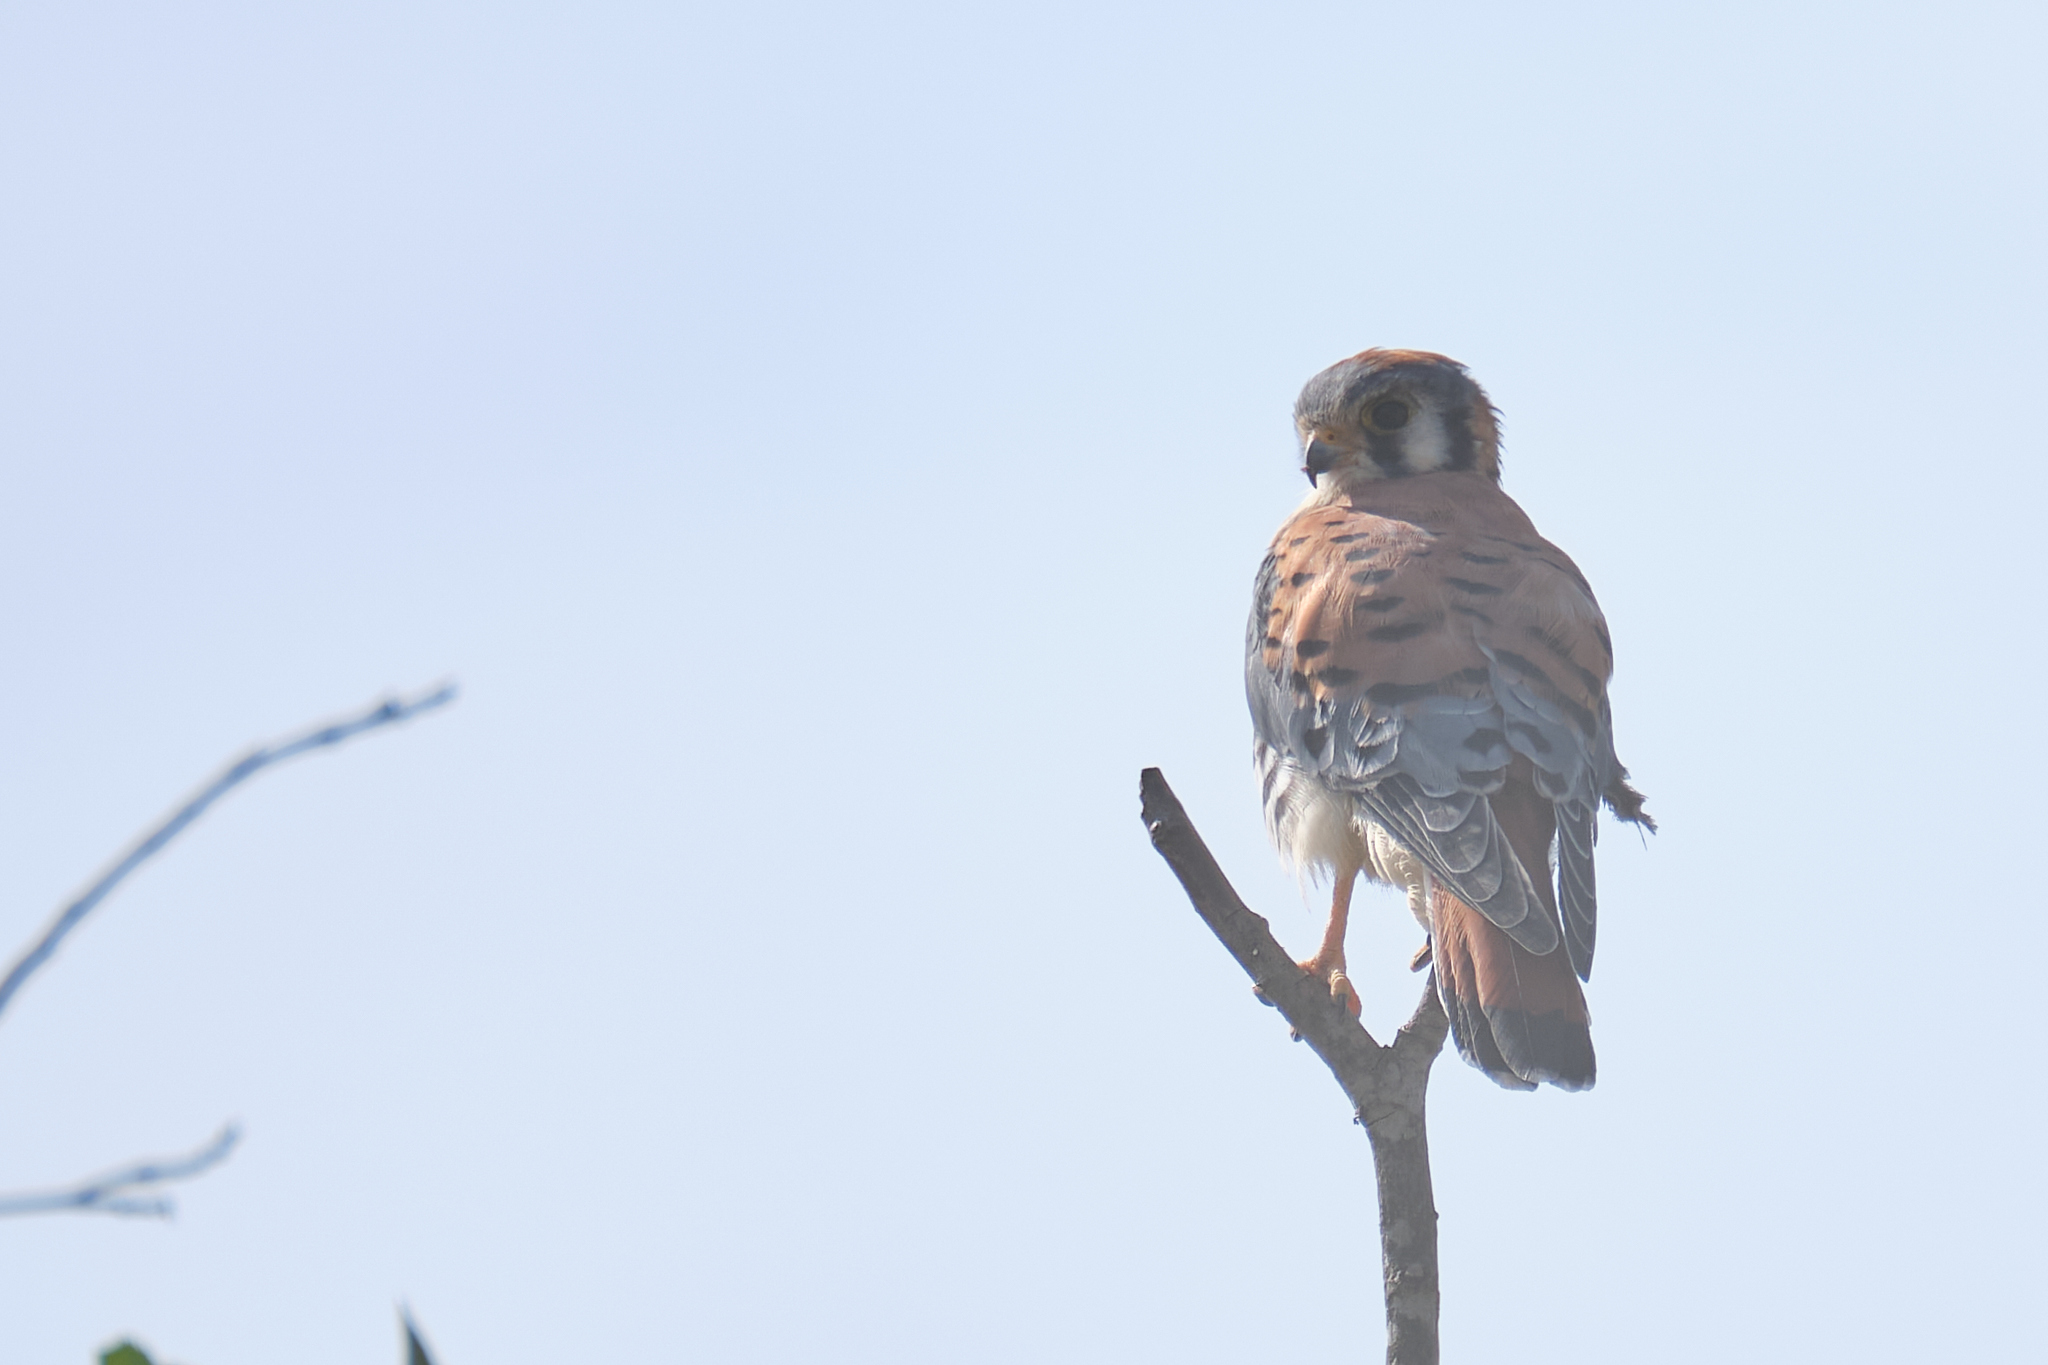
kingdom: Animalia
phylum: Chordata
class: Aves
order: Falconiformes
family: Falconidae
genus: Falco
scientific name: Falco sparverius
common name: American kestrel
